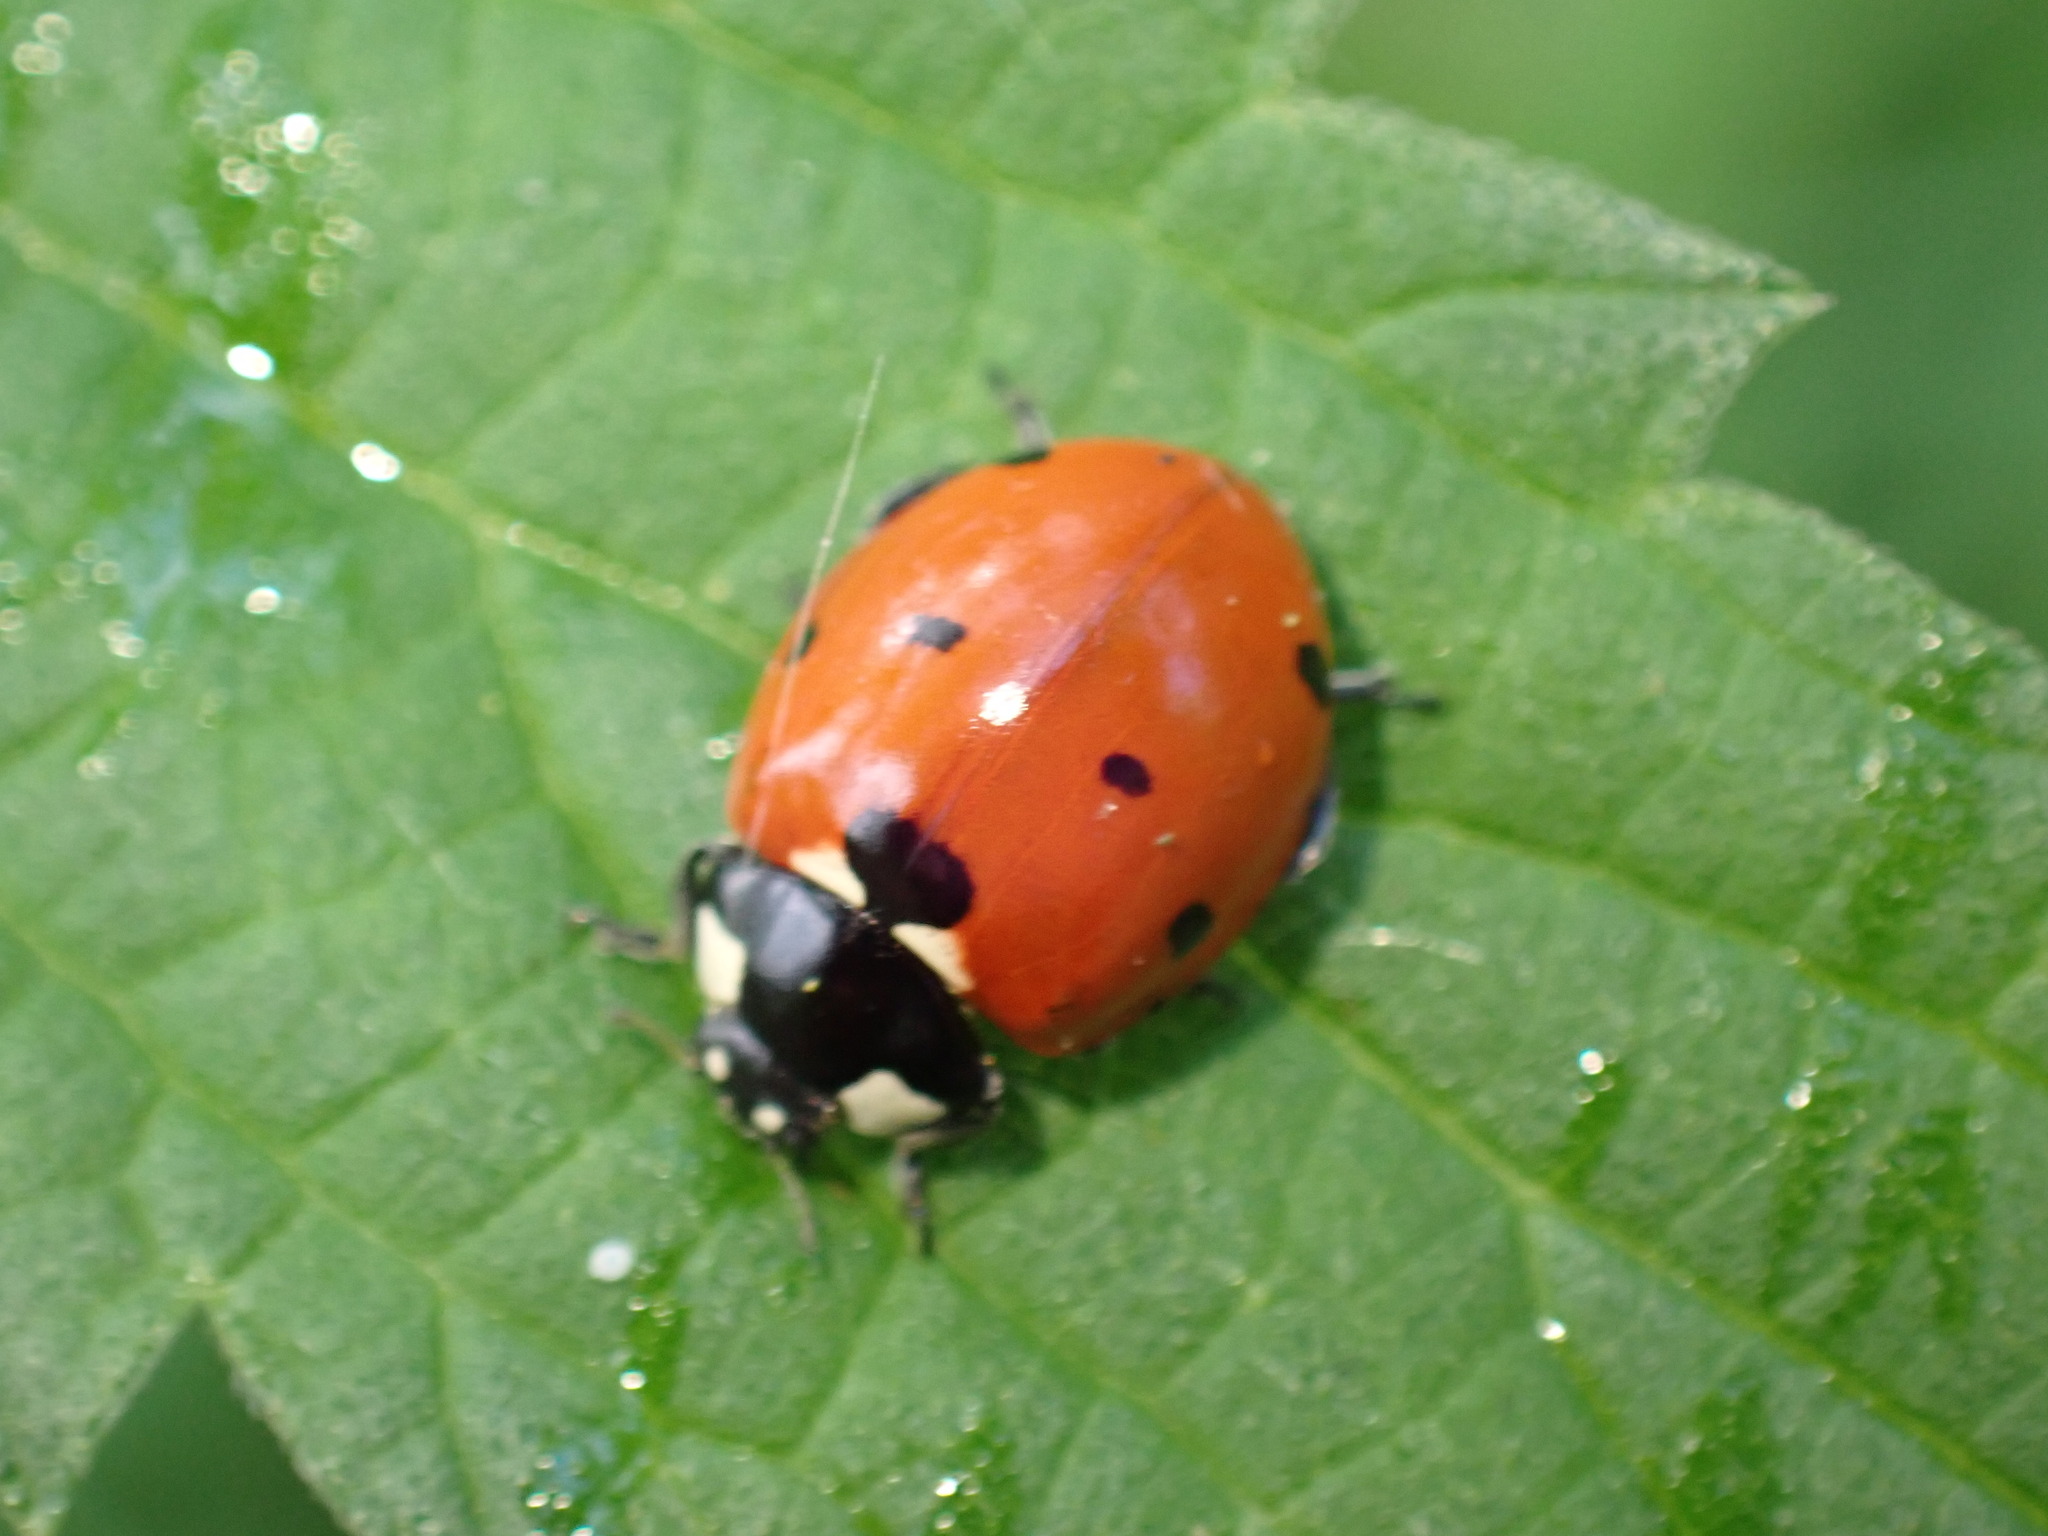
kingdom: Animalia
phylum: Arthropoda
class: Insecta
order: Coleoptera
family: Coccinellidae
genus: Coccinella
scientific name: Coccinella septempunctata
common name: Sevenspotted lady beetle
